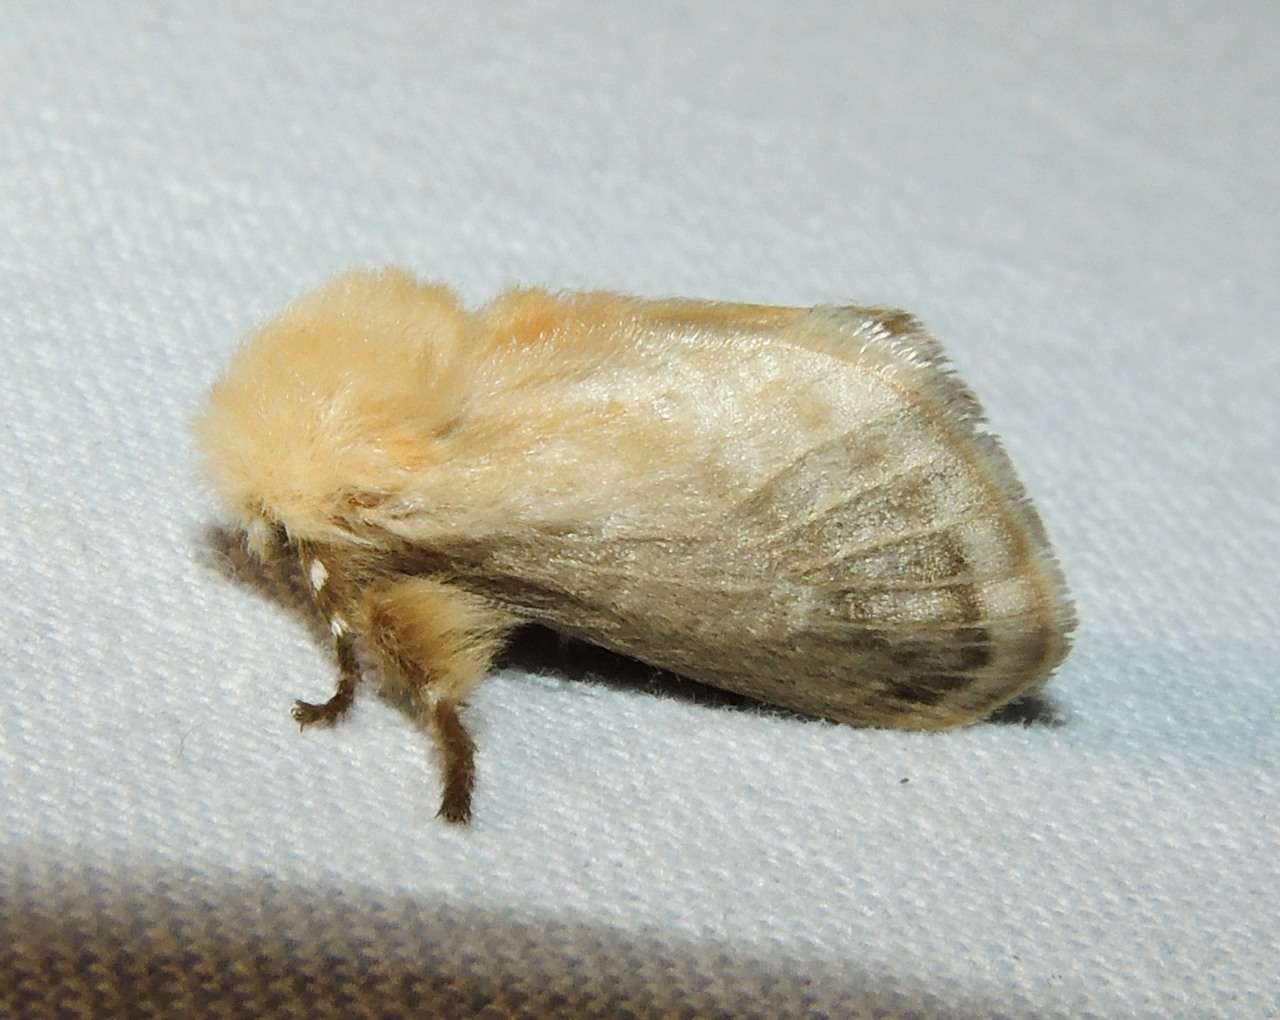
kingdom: Animalia
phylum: Arthropoda
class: Insecta
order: Lepidoptera
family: Limacodidae
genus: Doratifera
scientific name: Doratifera pinguis
